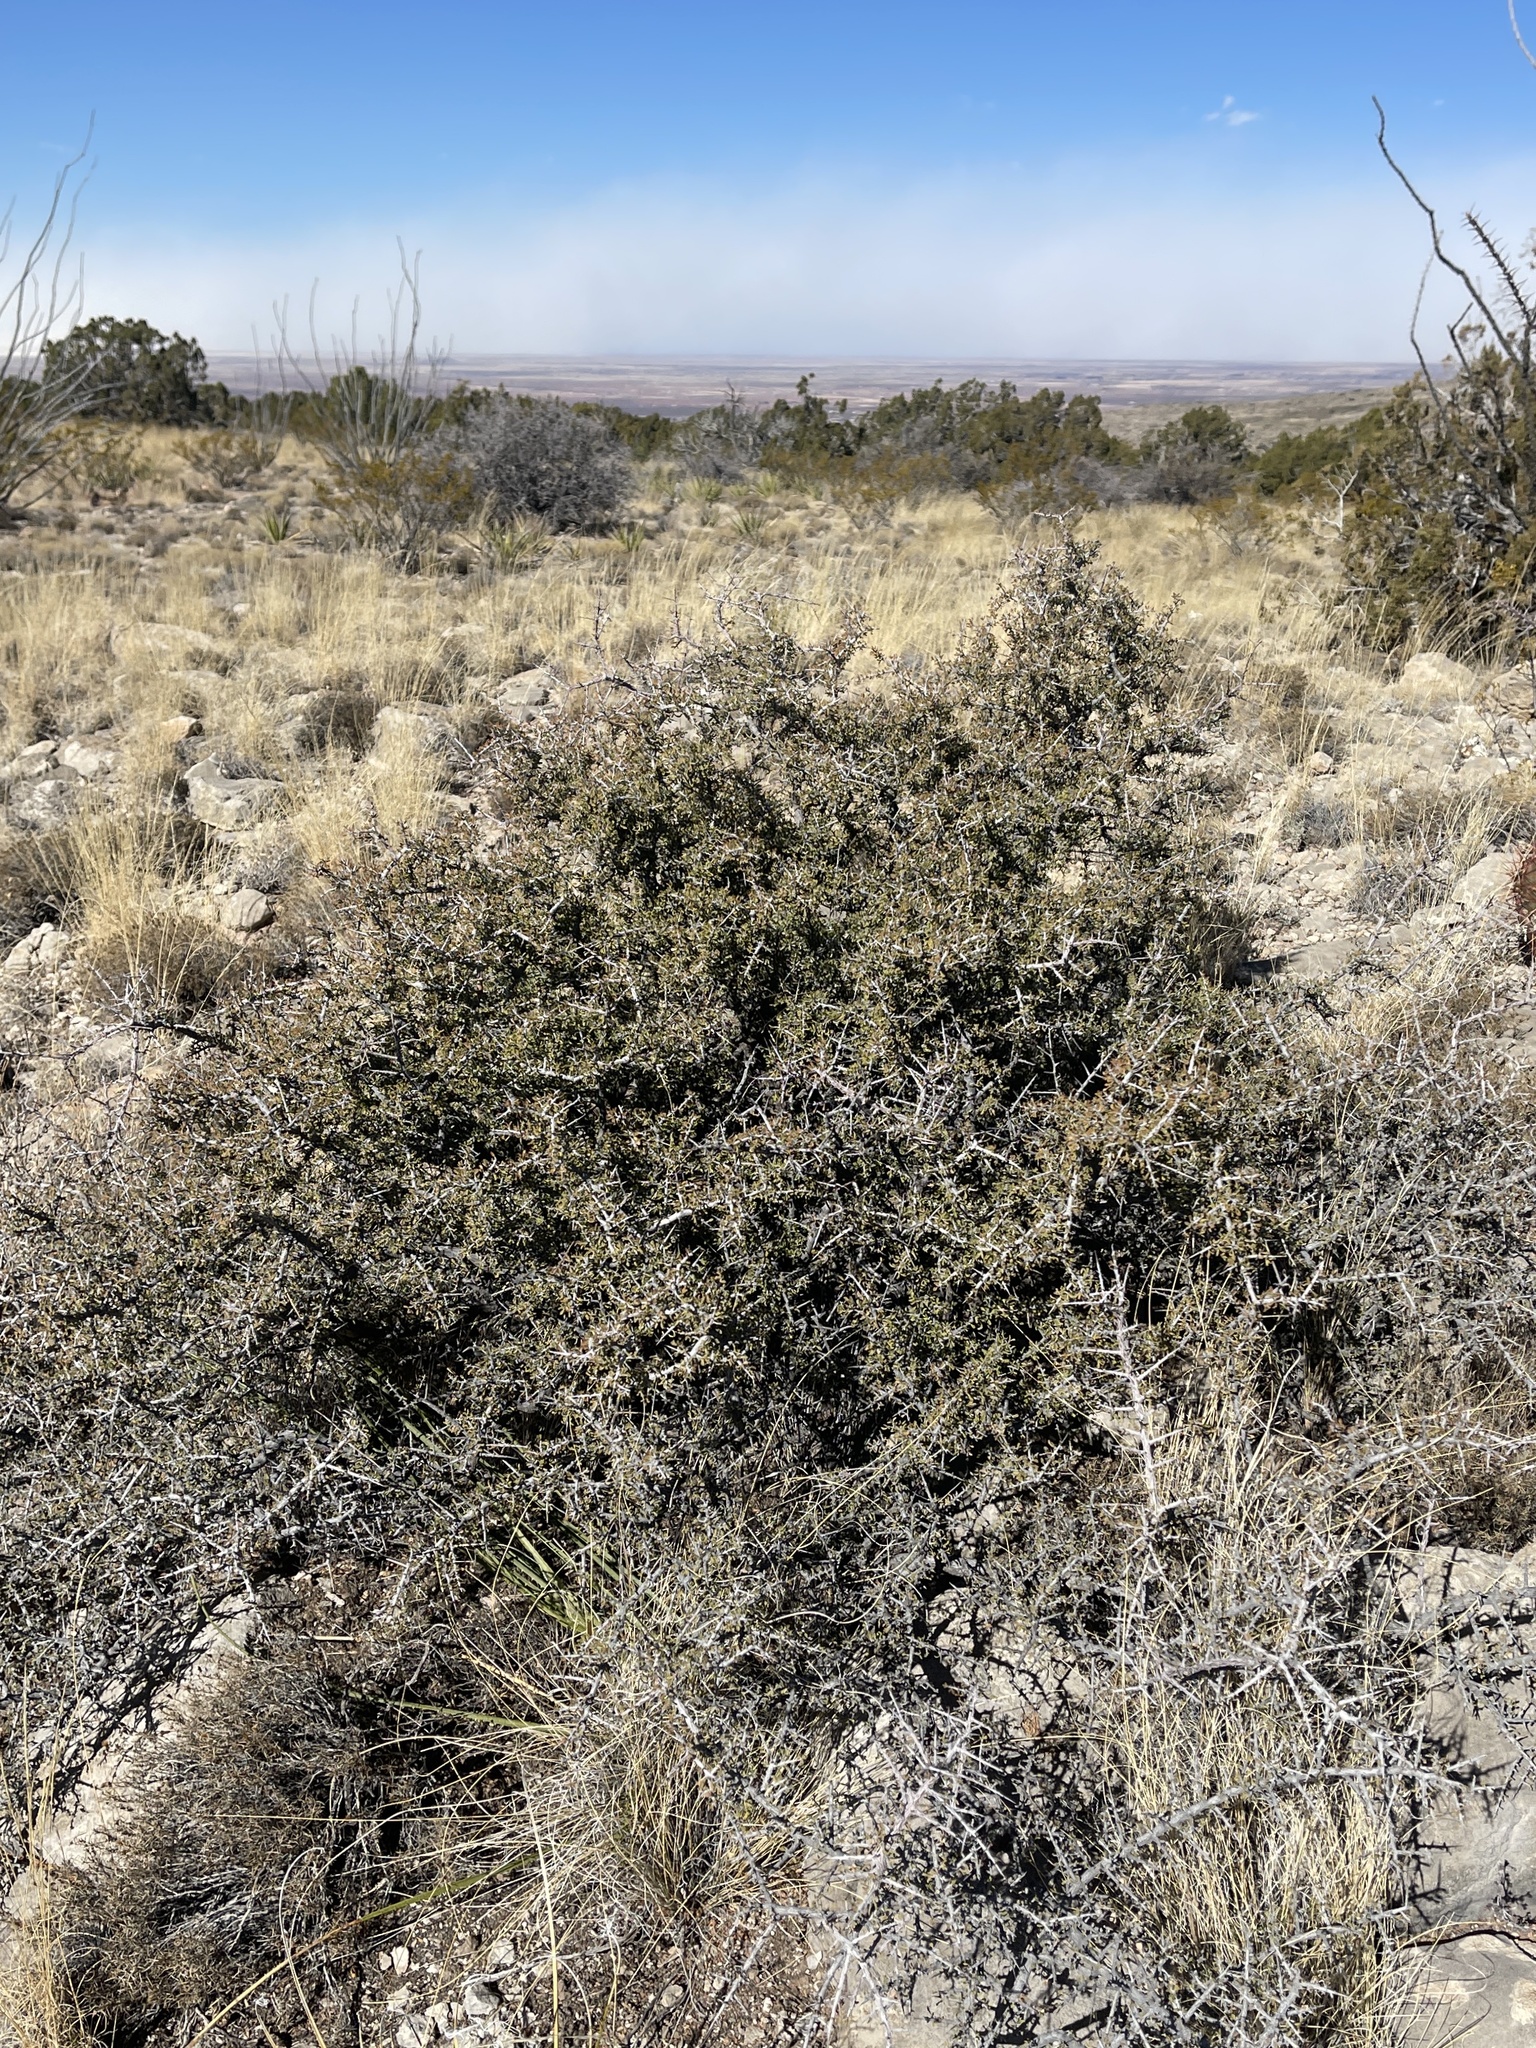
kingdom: Plantae
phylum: Tracheophyta
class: Magnoliopsida
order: Rosales
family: Rhamnaceae
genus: Condalia
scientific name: Condalia warnockii
